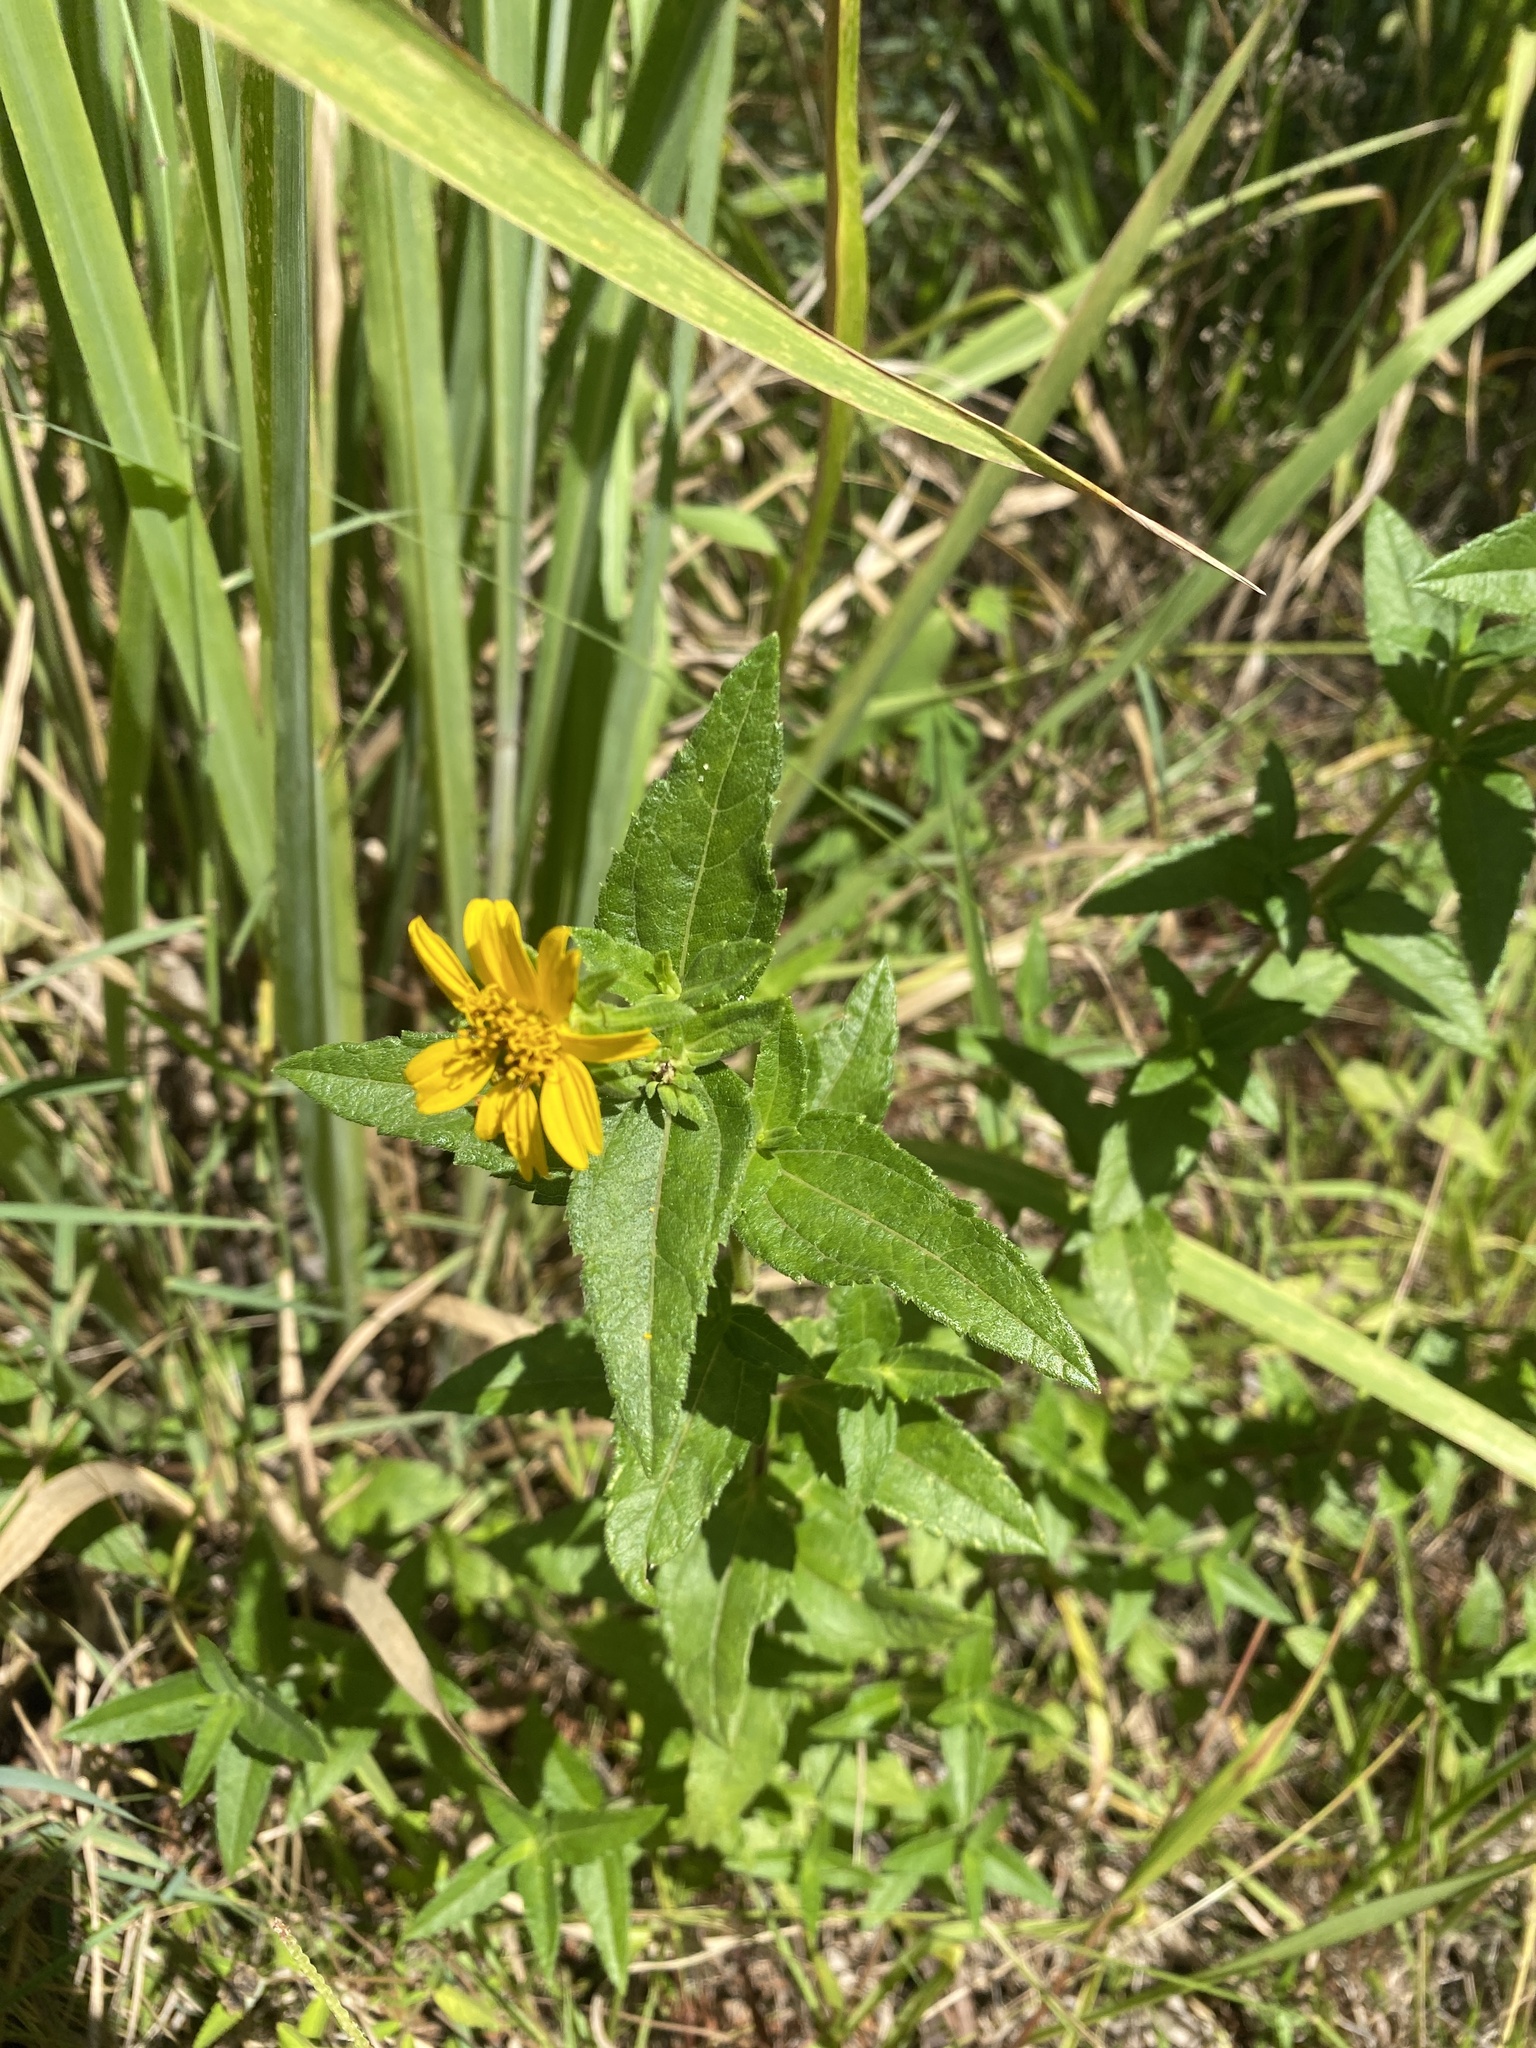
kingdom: Plantae
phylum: Tracheophyta
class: Magnoliopsida
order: Asterales
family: Asteraceae
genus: Aspilia
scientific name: Aspilia pluriseta
